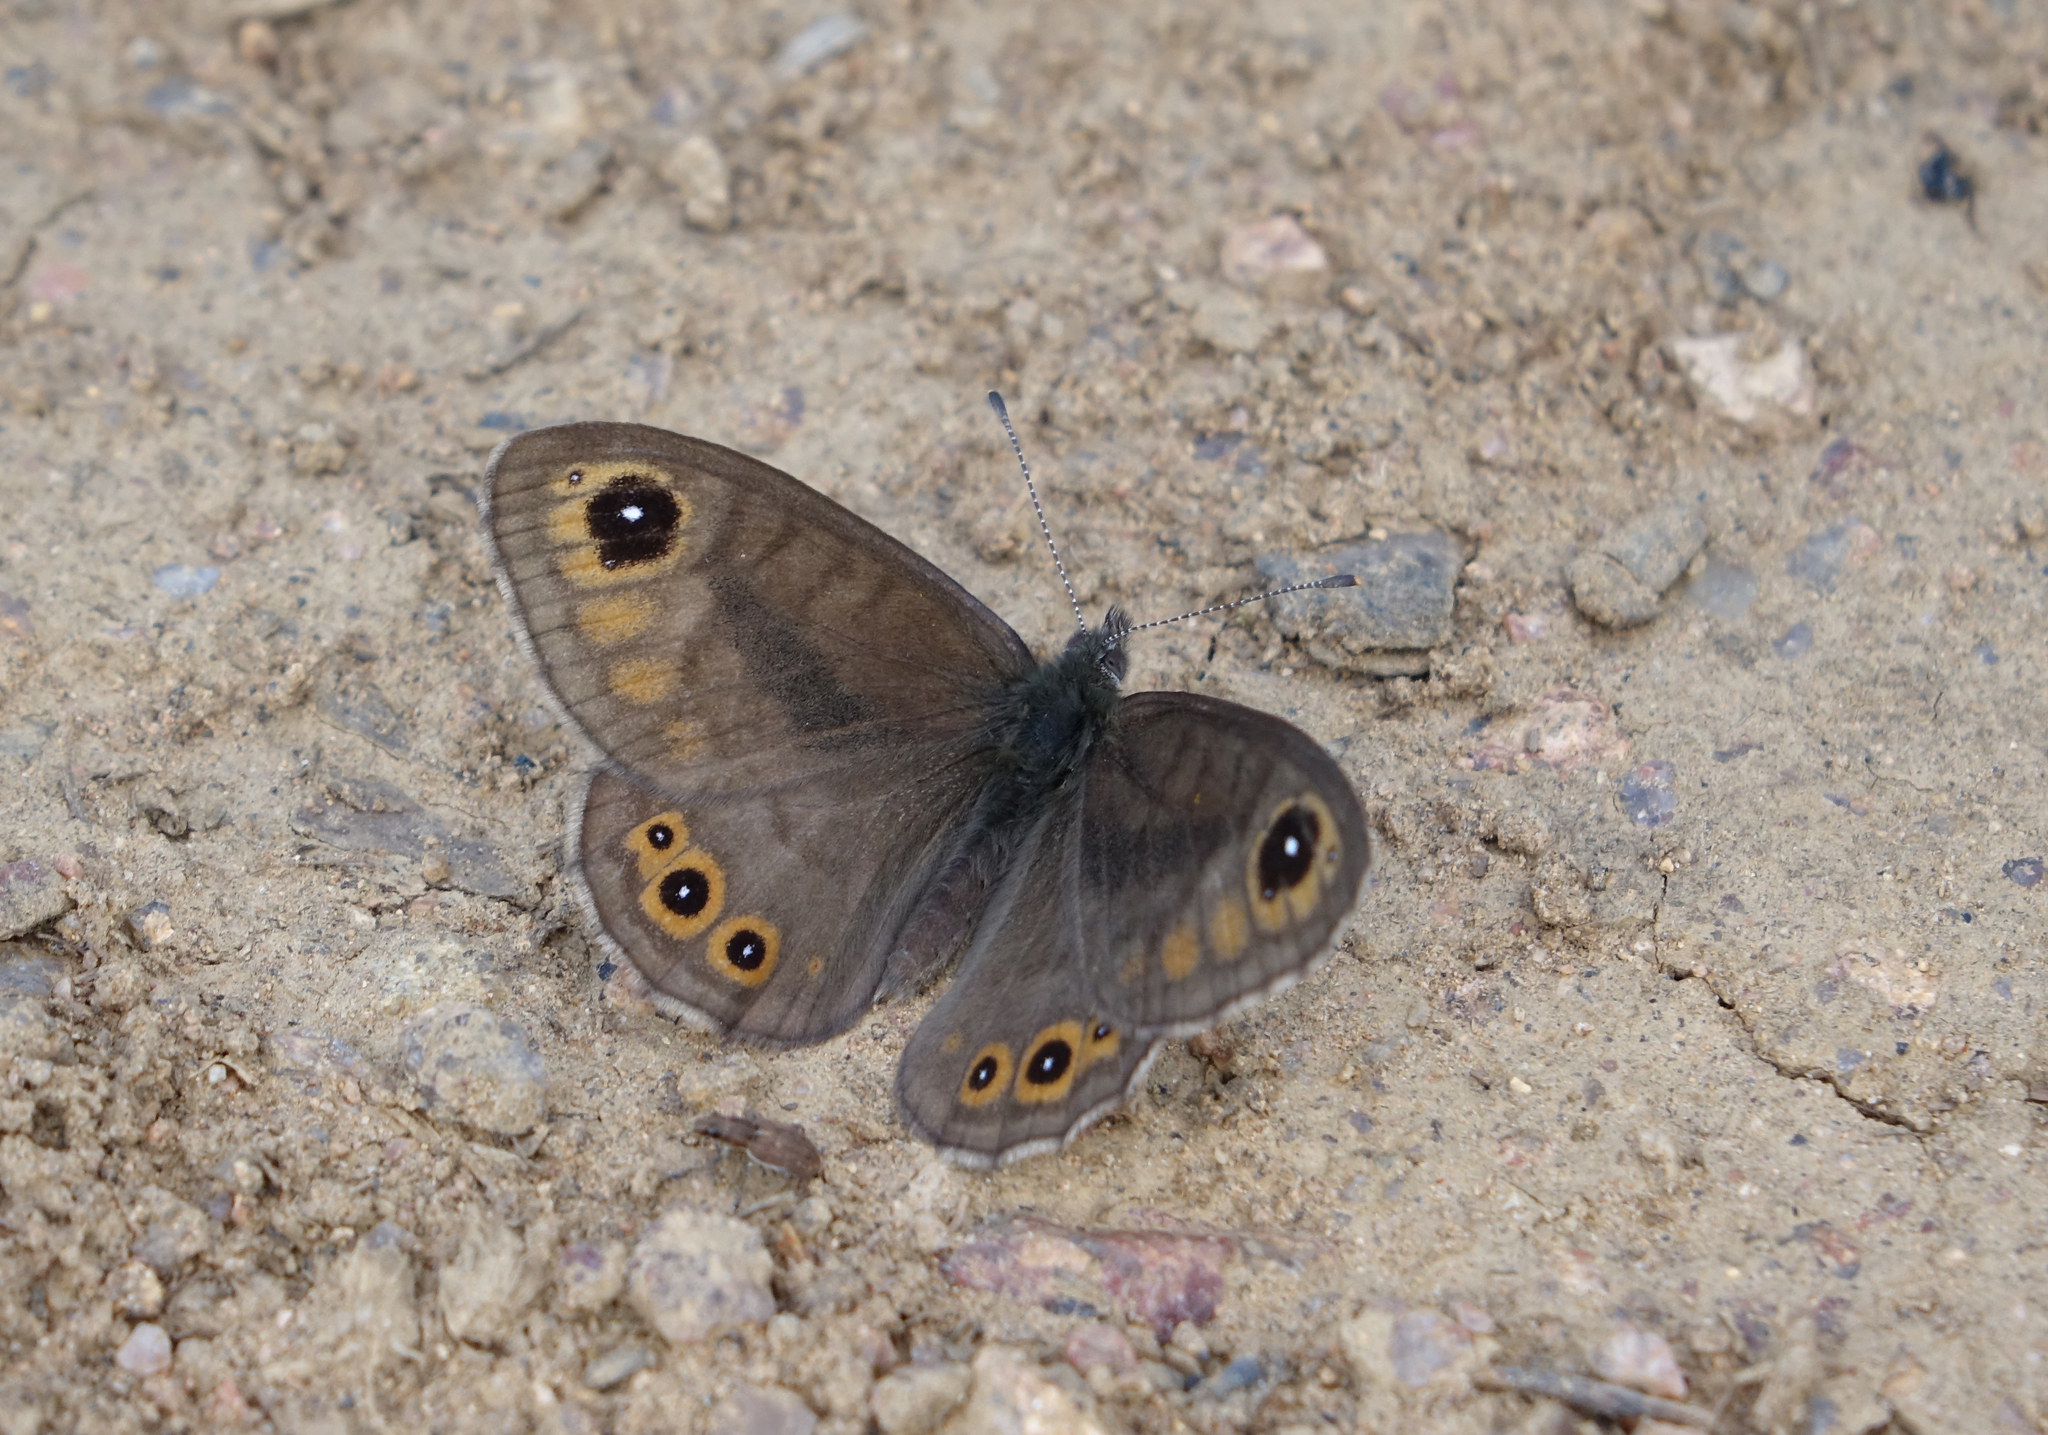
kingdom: Animalia
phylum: Arthropoda
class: Insecta
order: Lepidoptera
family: Nymphalidae
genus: Pararge
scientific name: Pararge petropolitana
